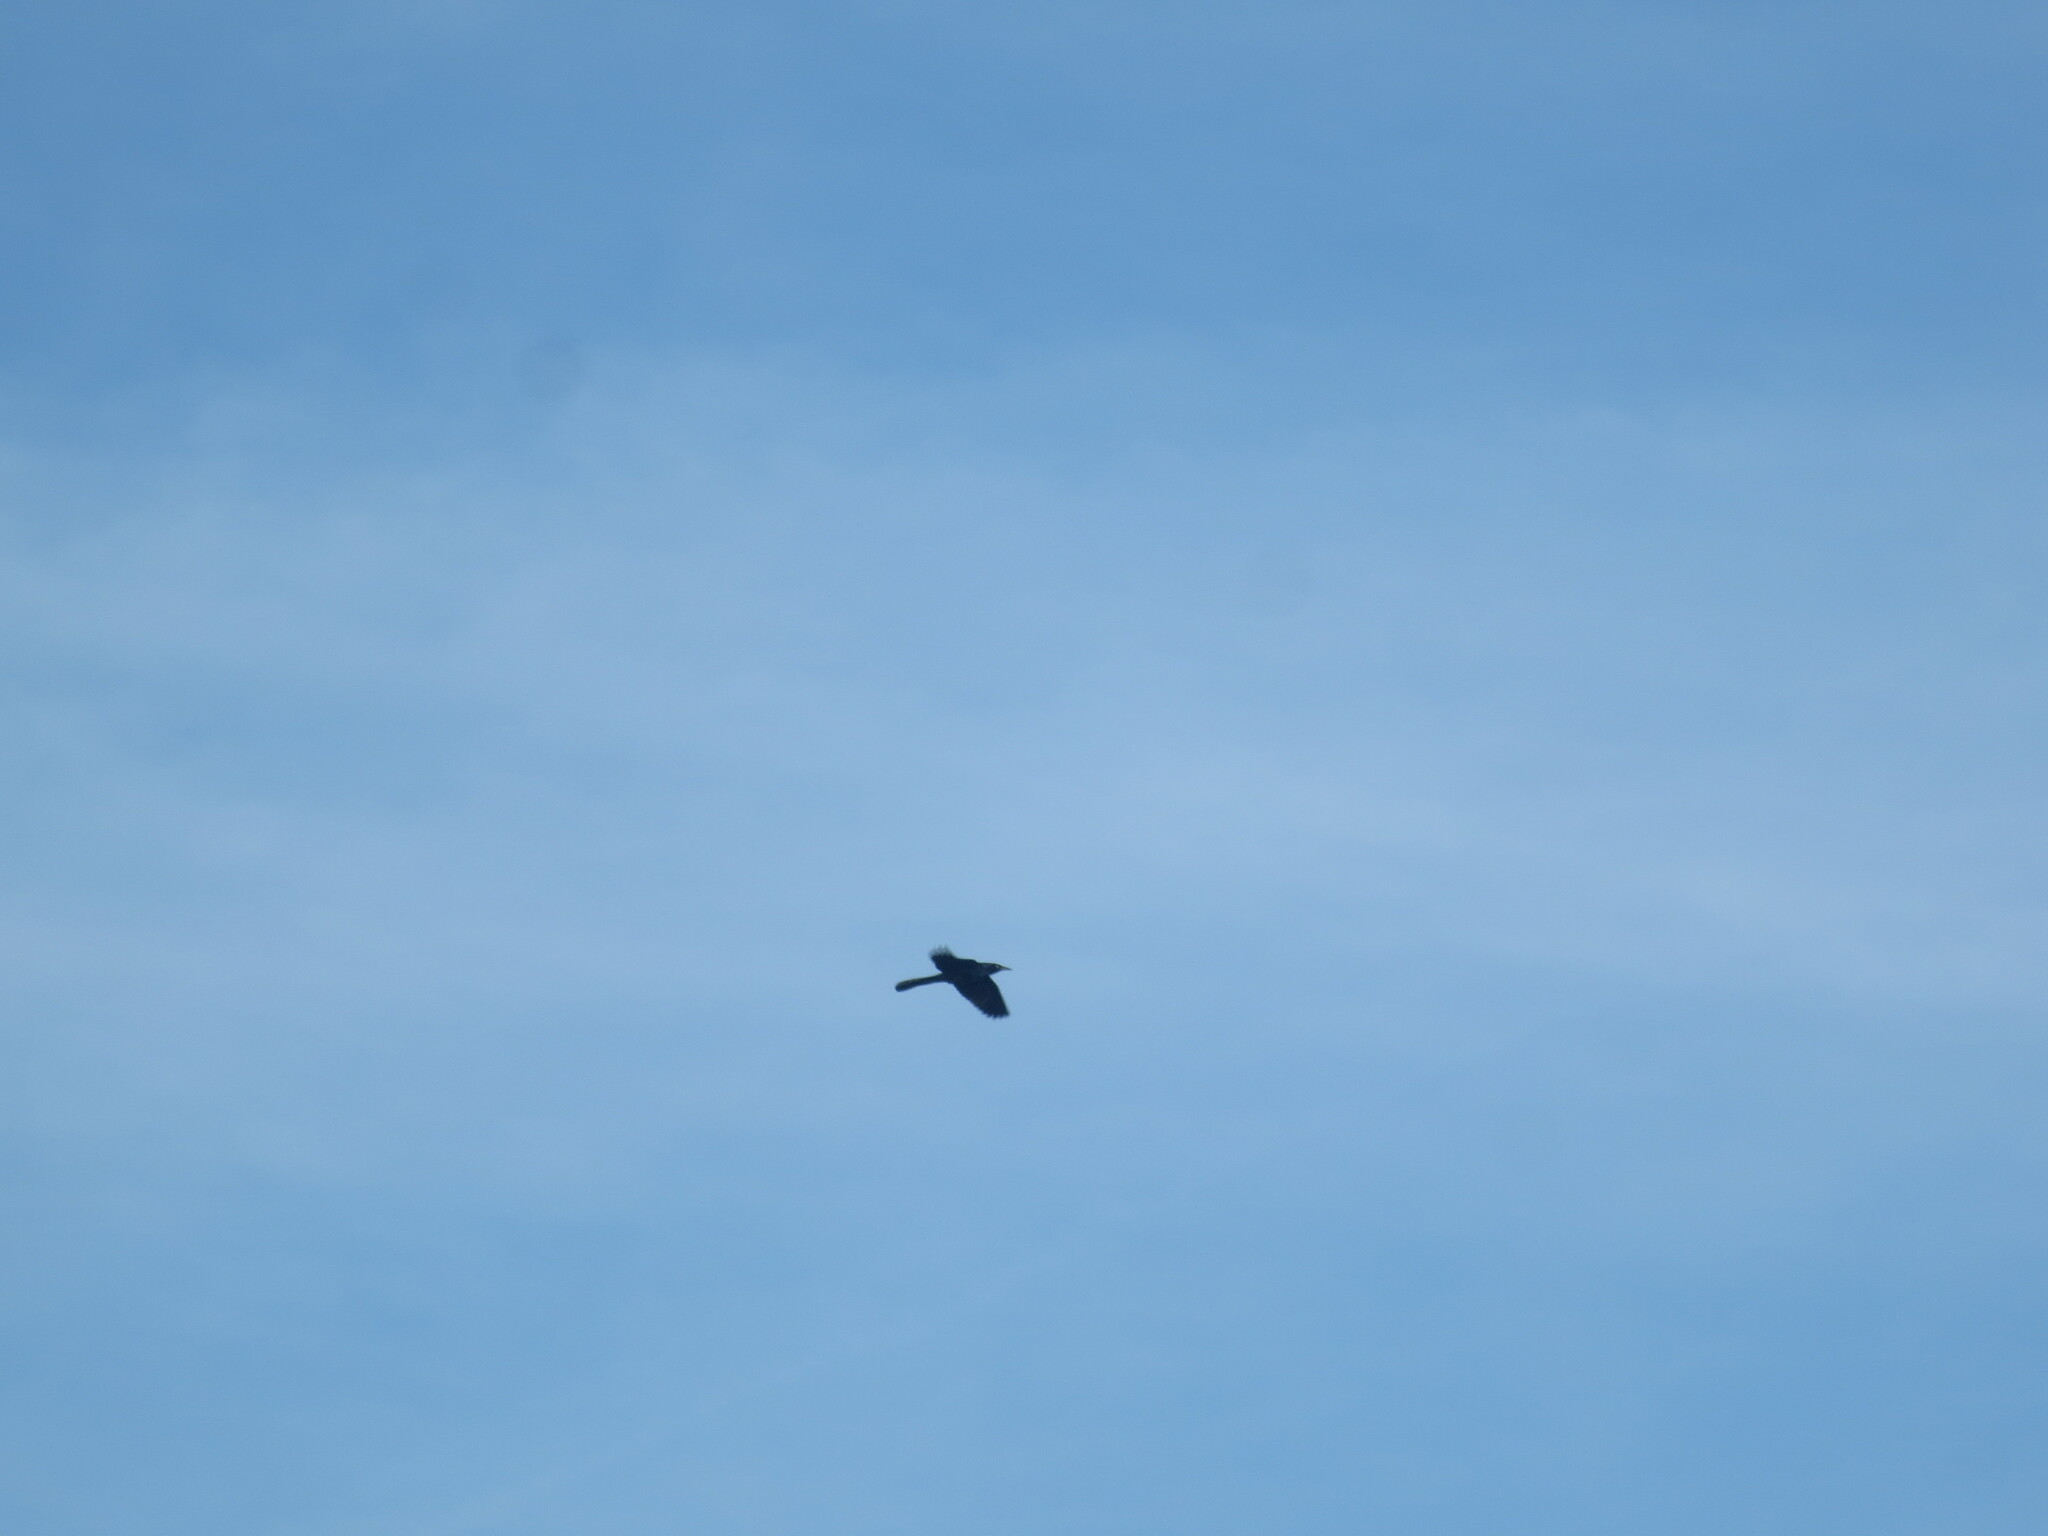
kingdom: Animalia
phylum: Chordata
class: Aves
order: Passeriformes
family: Icteridae
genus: Quiscalus
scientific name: Quiscalus major
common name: Boat-tailed grackle
